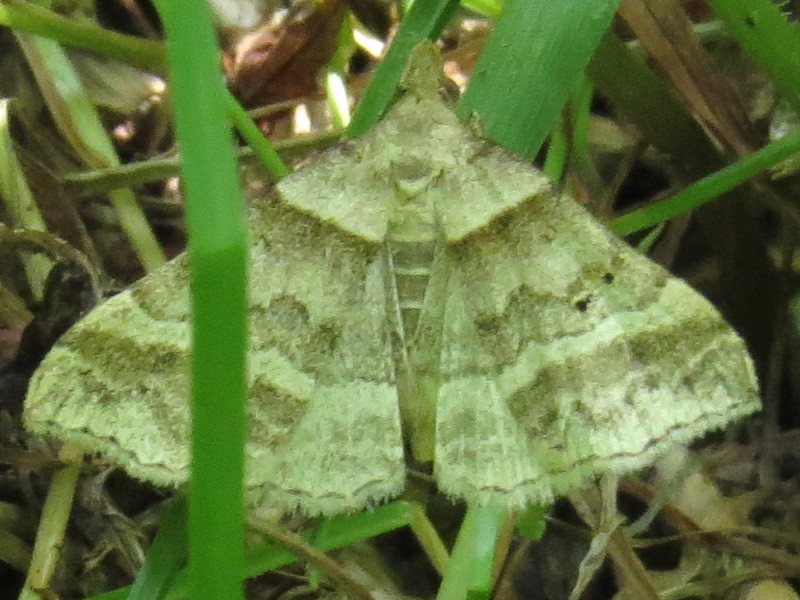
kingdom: Animalia
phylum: Arthropoda
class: Insecta
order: Lepidoptera
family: Erebidae
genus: Phaeolita
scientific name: Phaeolita pyramusalis
